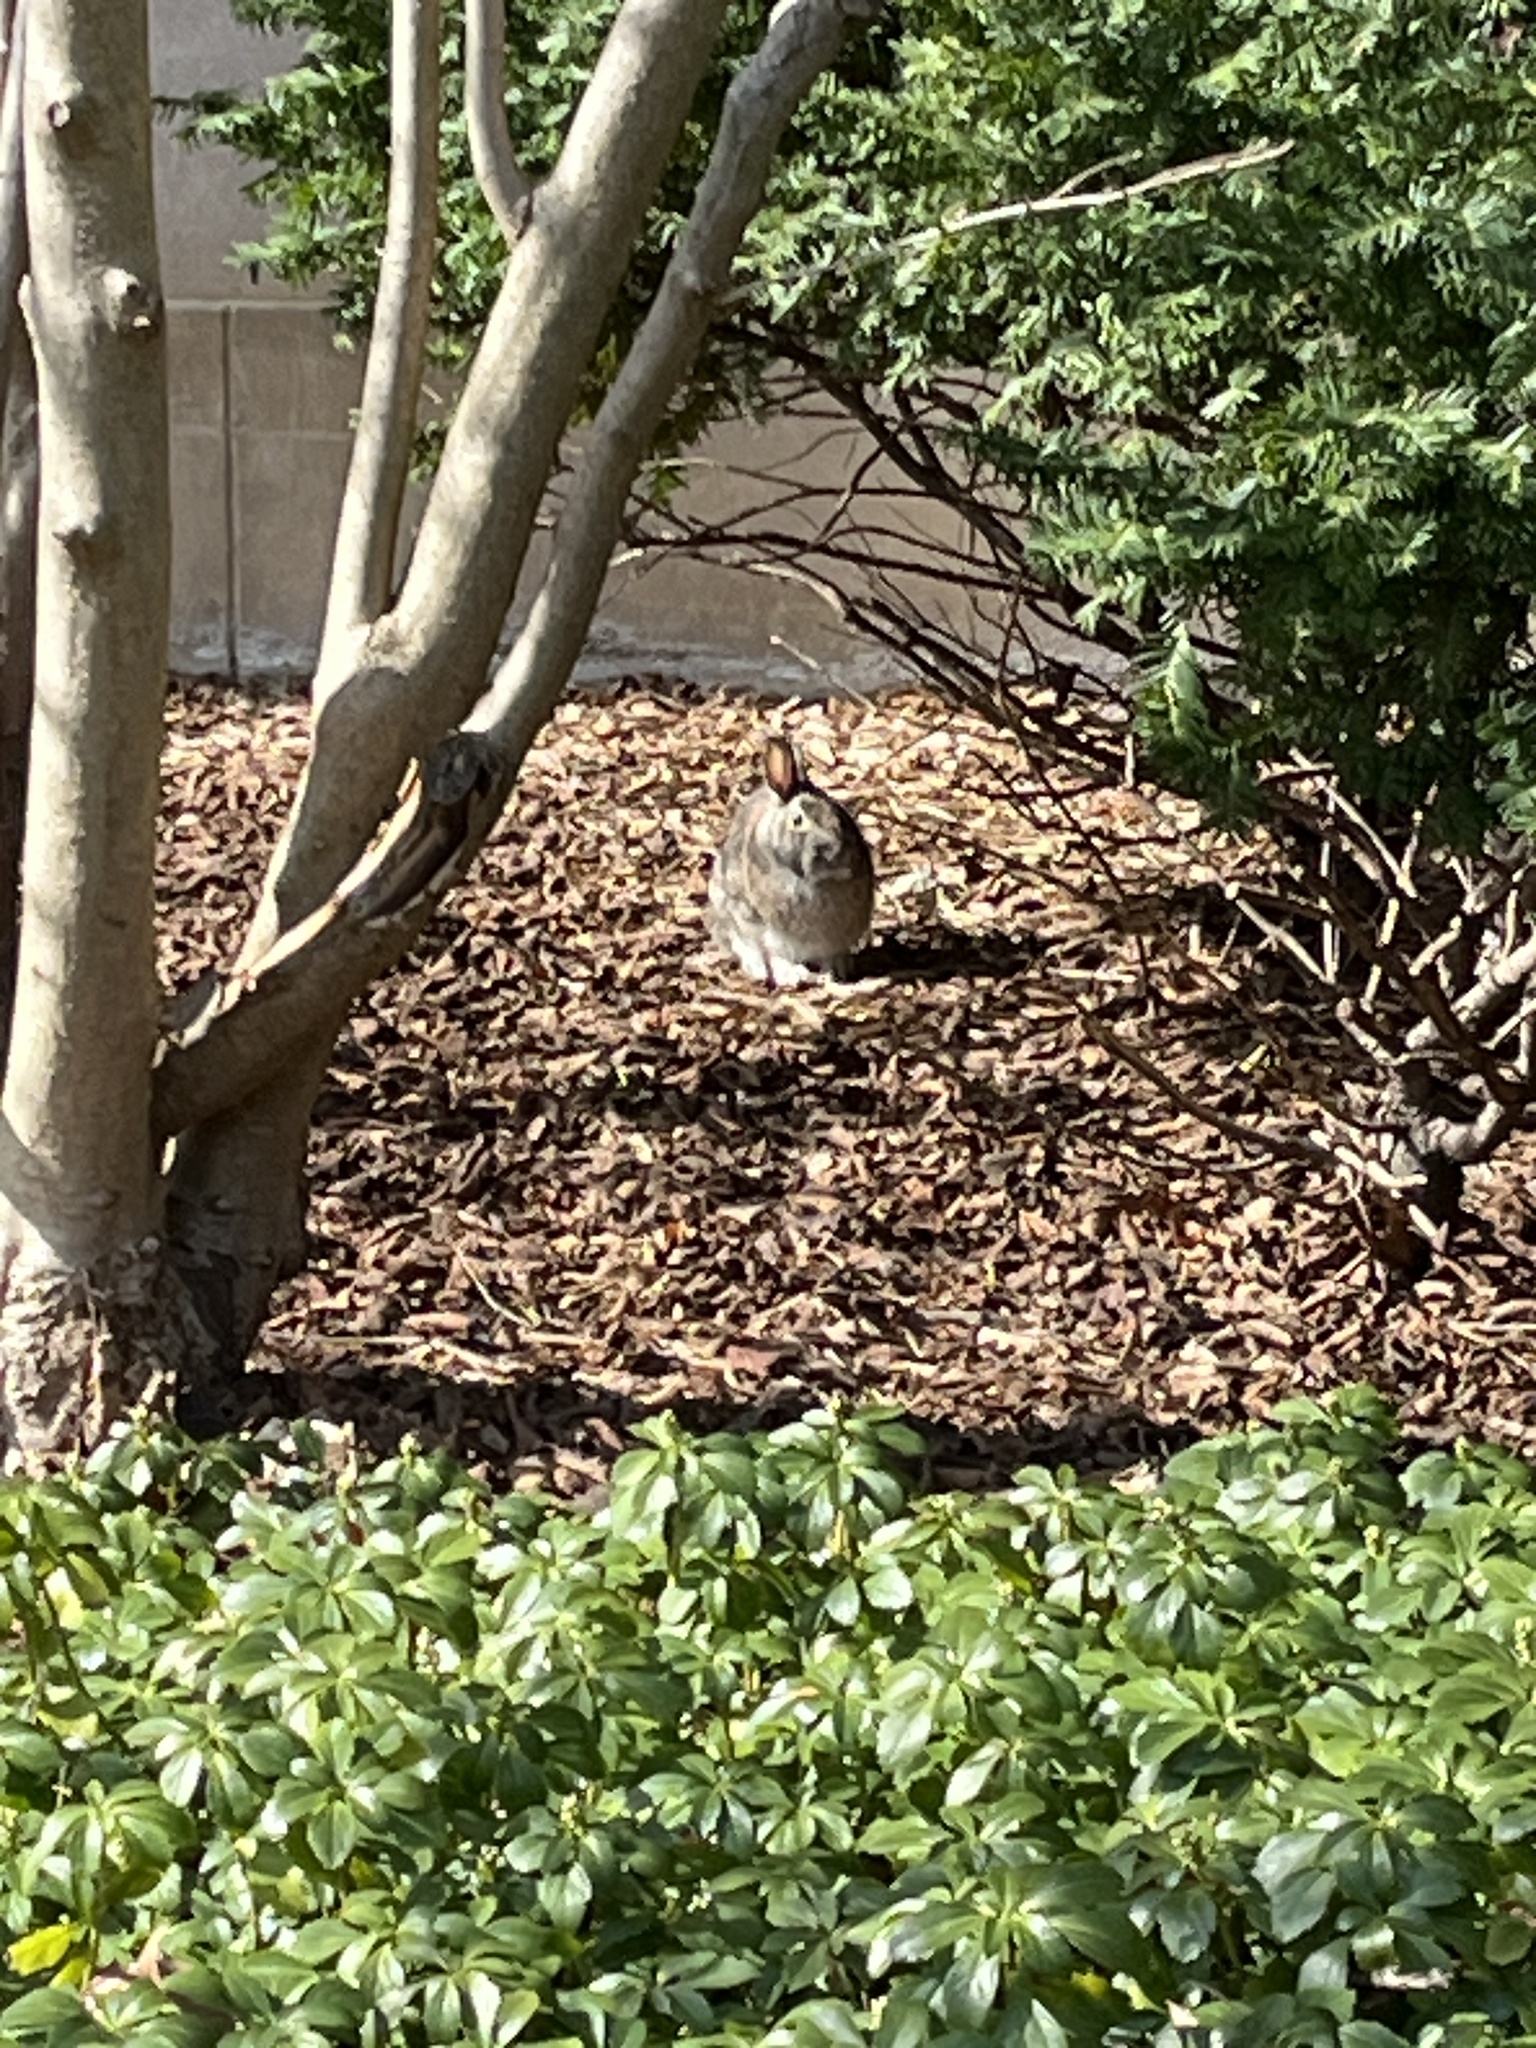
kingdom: Animalia
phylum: Chordata
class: Mammalia
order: Lagomorpha
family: Leporidae
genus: Sylvilagus
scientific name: Sylvilagus floridanus
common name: Eastern cottontail
